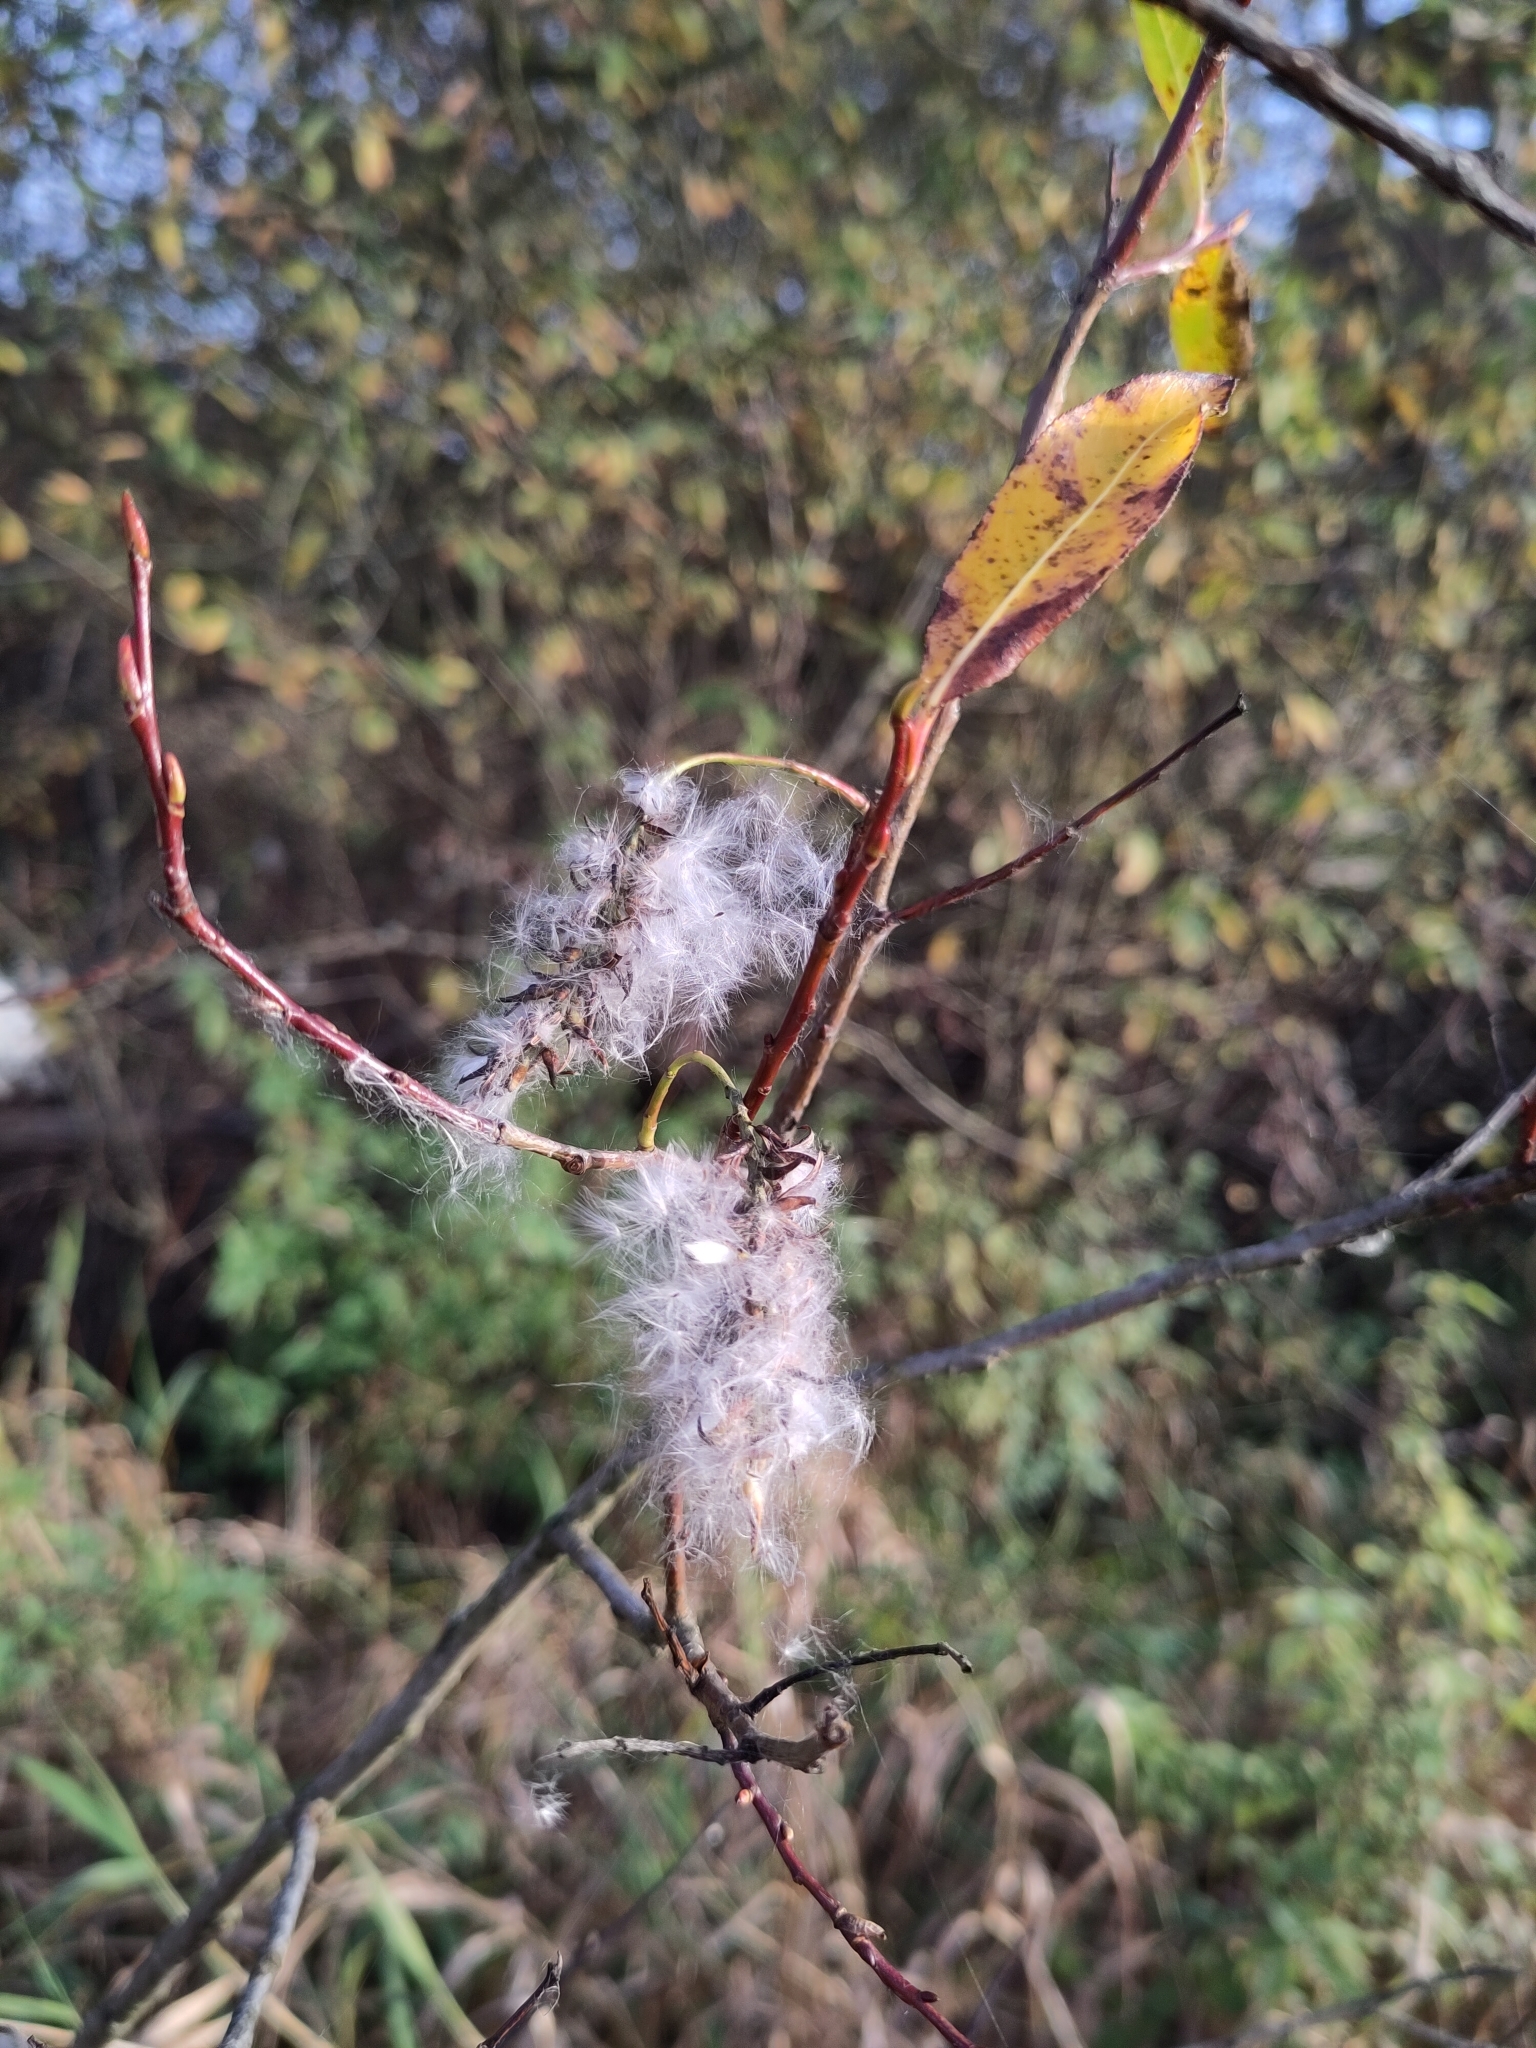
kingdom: Plantae
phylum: Tracheophyta
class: Magnoliopsida
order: Malpighiales
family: Salicaceae
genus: Salix
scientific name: Salix pentandra
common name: Bay willow
